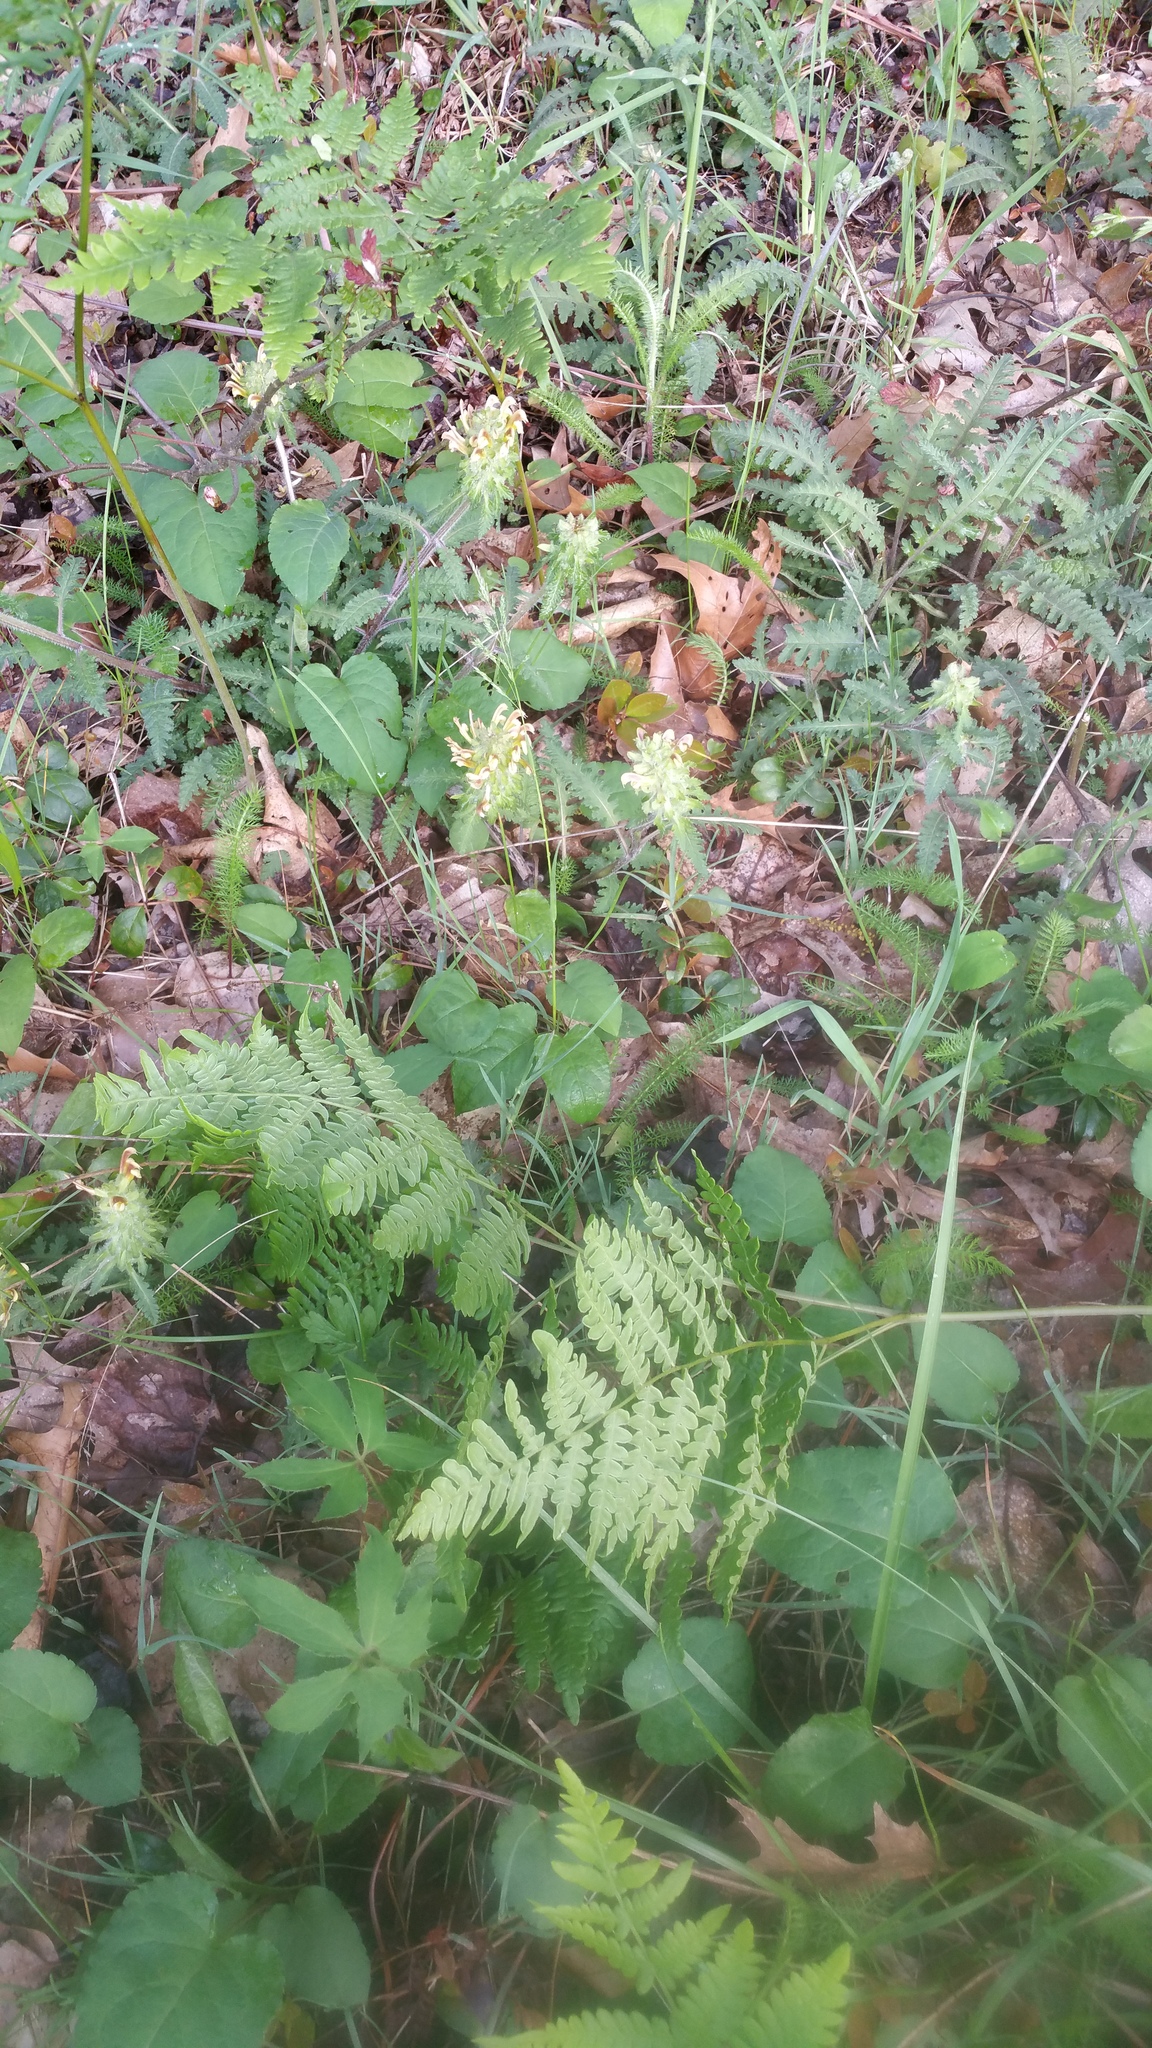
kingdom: Plantae
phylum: Tracheophyta
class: Magnoliopsida
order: Lamiales
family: Orobanchaceae
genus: Pedicularis
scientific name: Pedicularis canadensis
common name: Early lousewort
